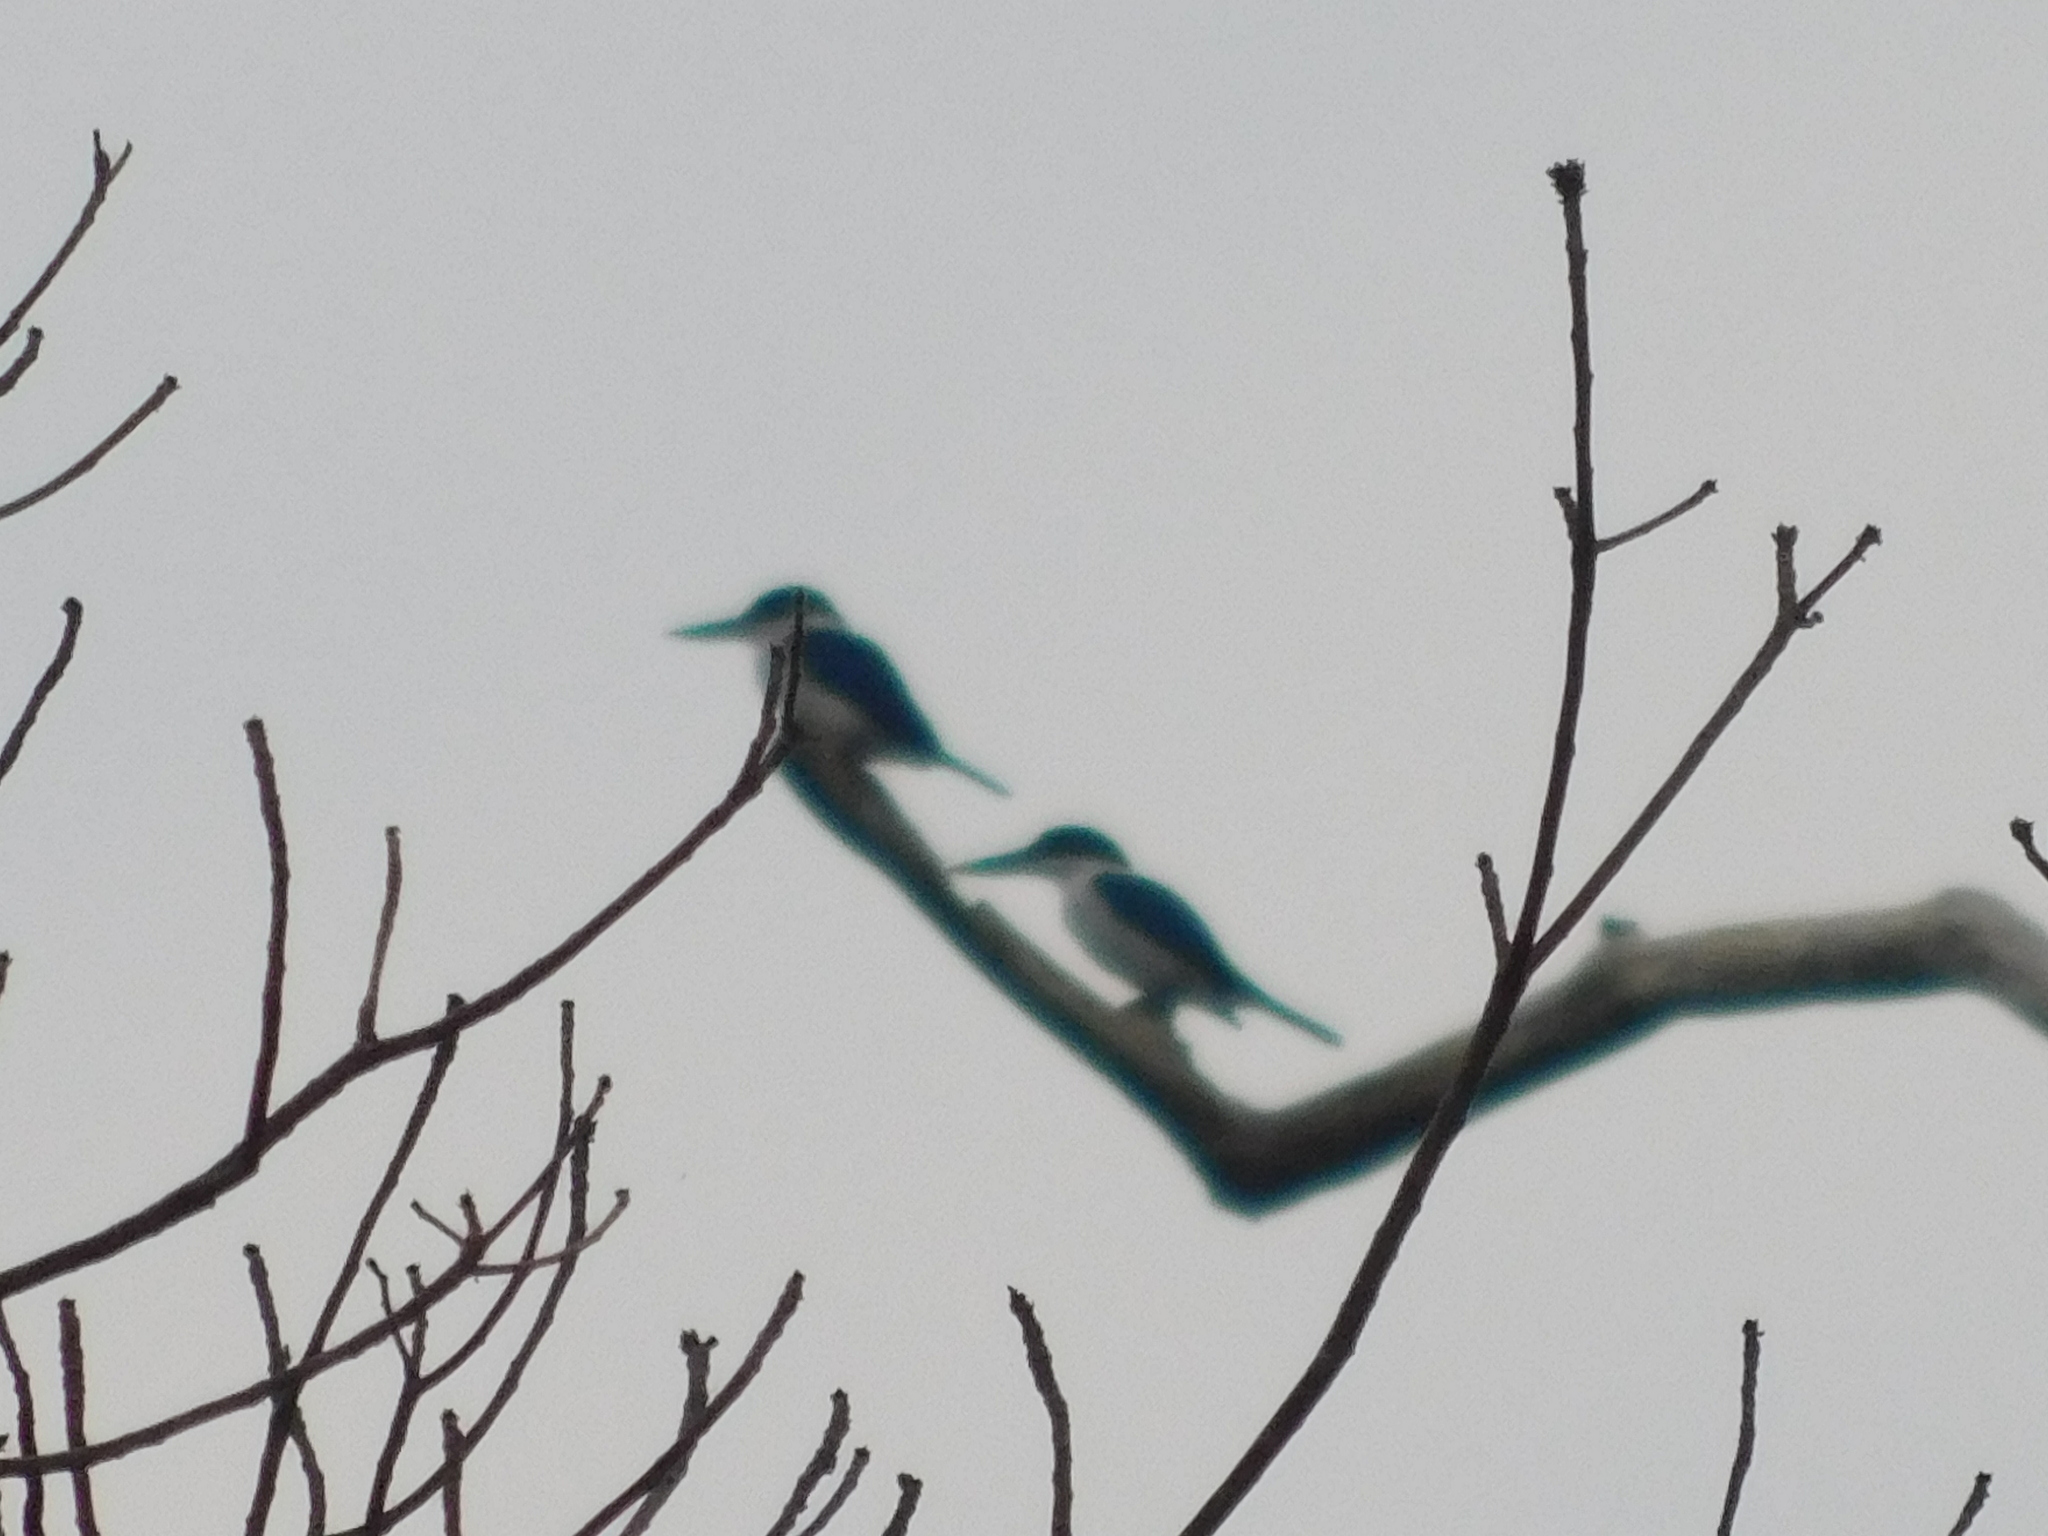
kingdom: Animalia
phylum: Chordata
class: Aves
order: Coraciiformes
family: Alcedinidae
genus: Todiramphus
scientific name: Todiramphus chloris
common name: Collared kingfisher
